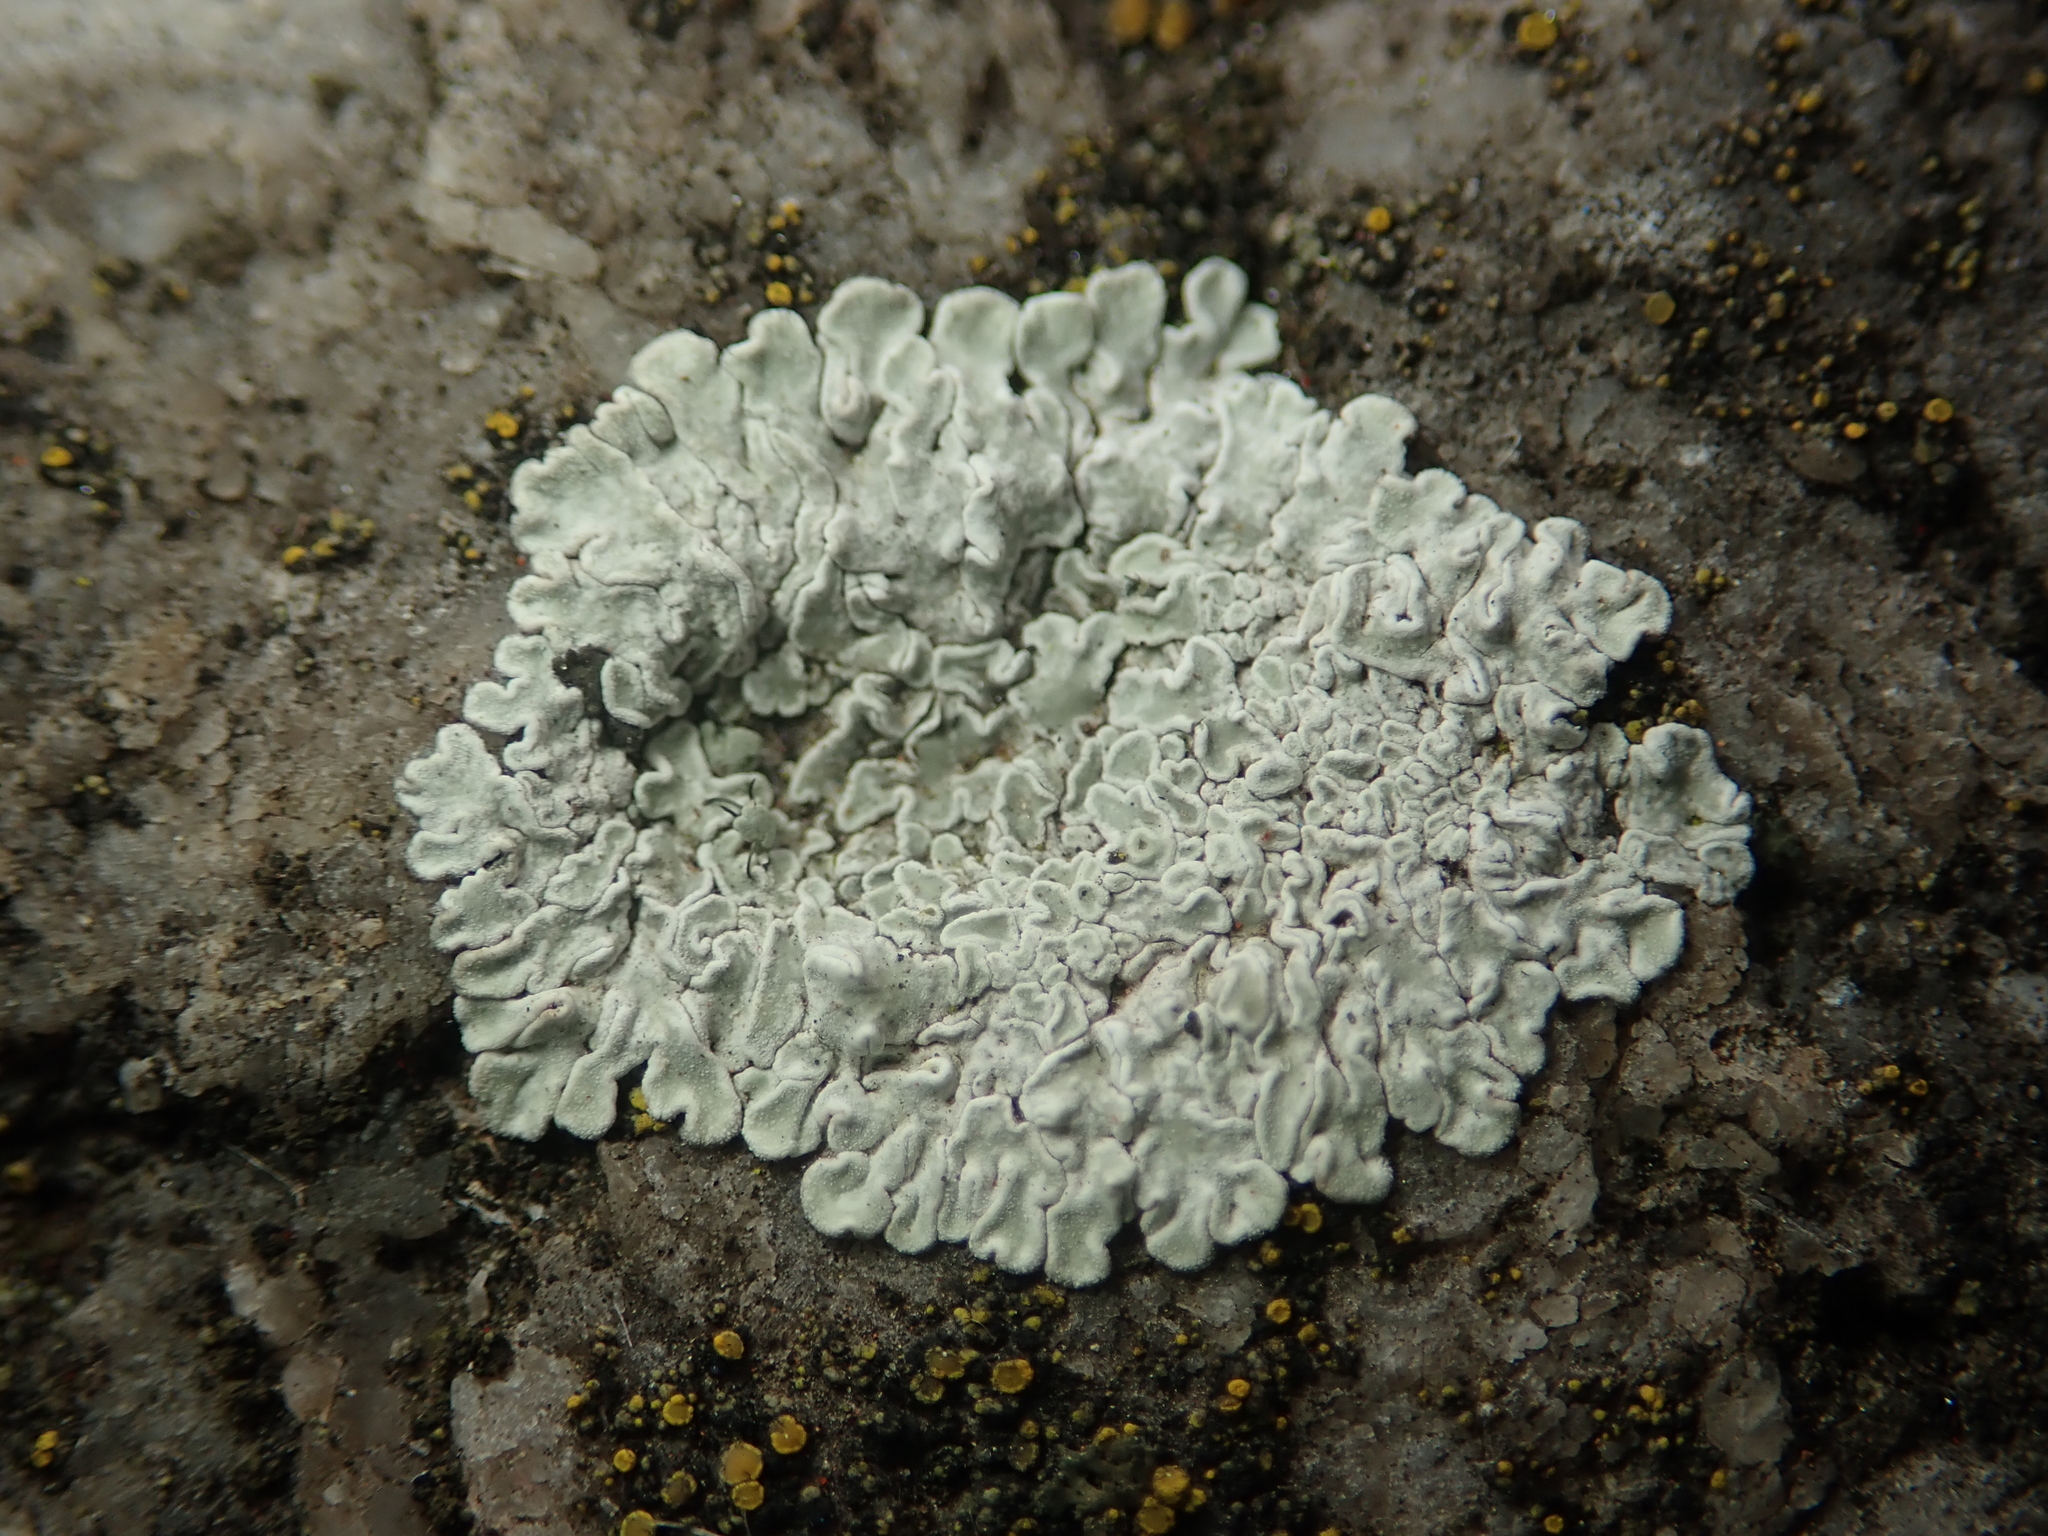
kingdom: Fungi
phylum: Ascomycota
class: Lecanoromycetes
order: Lecanorales
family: Lecanoraceae
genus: Protoparmeliopsis
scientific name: Protoparmeliopsis muralis
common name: Stonewall rim lichen
